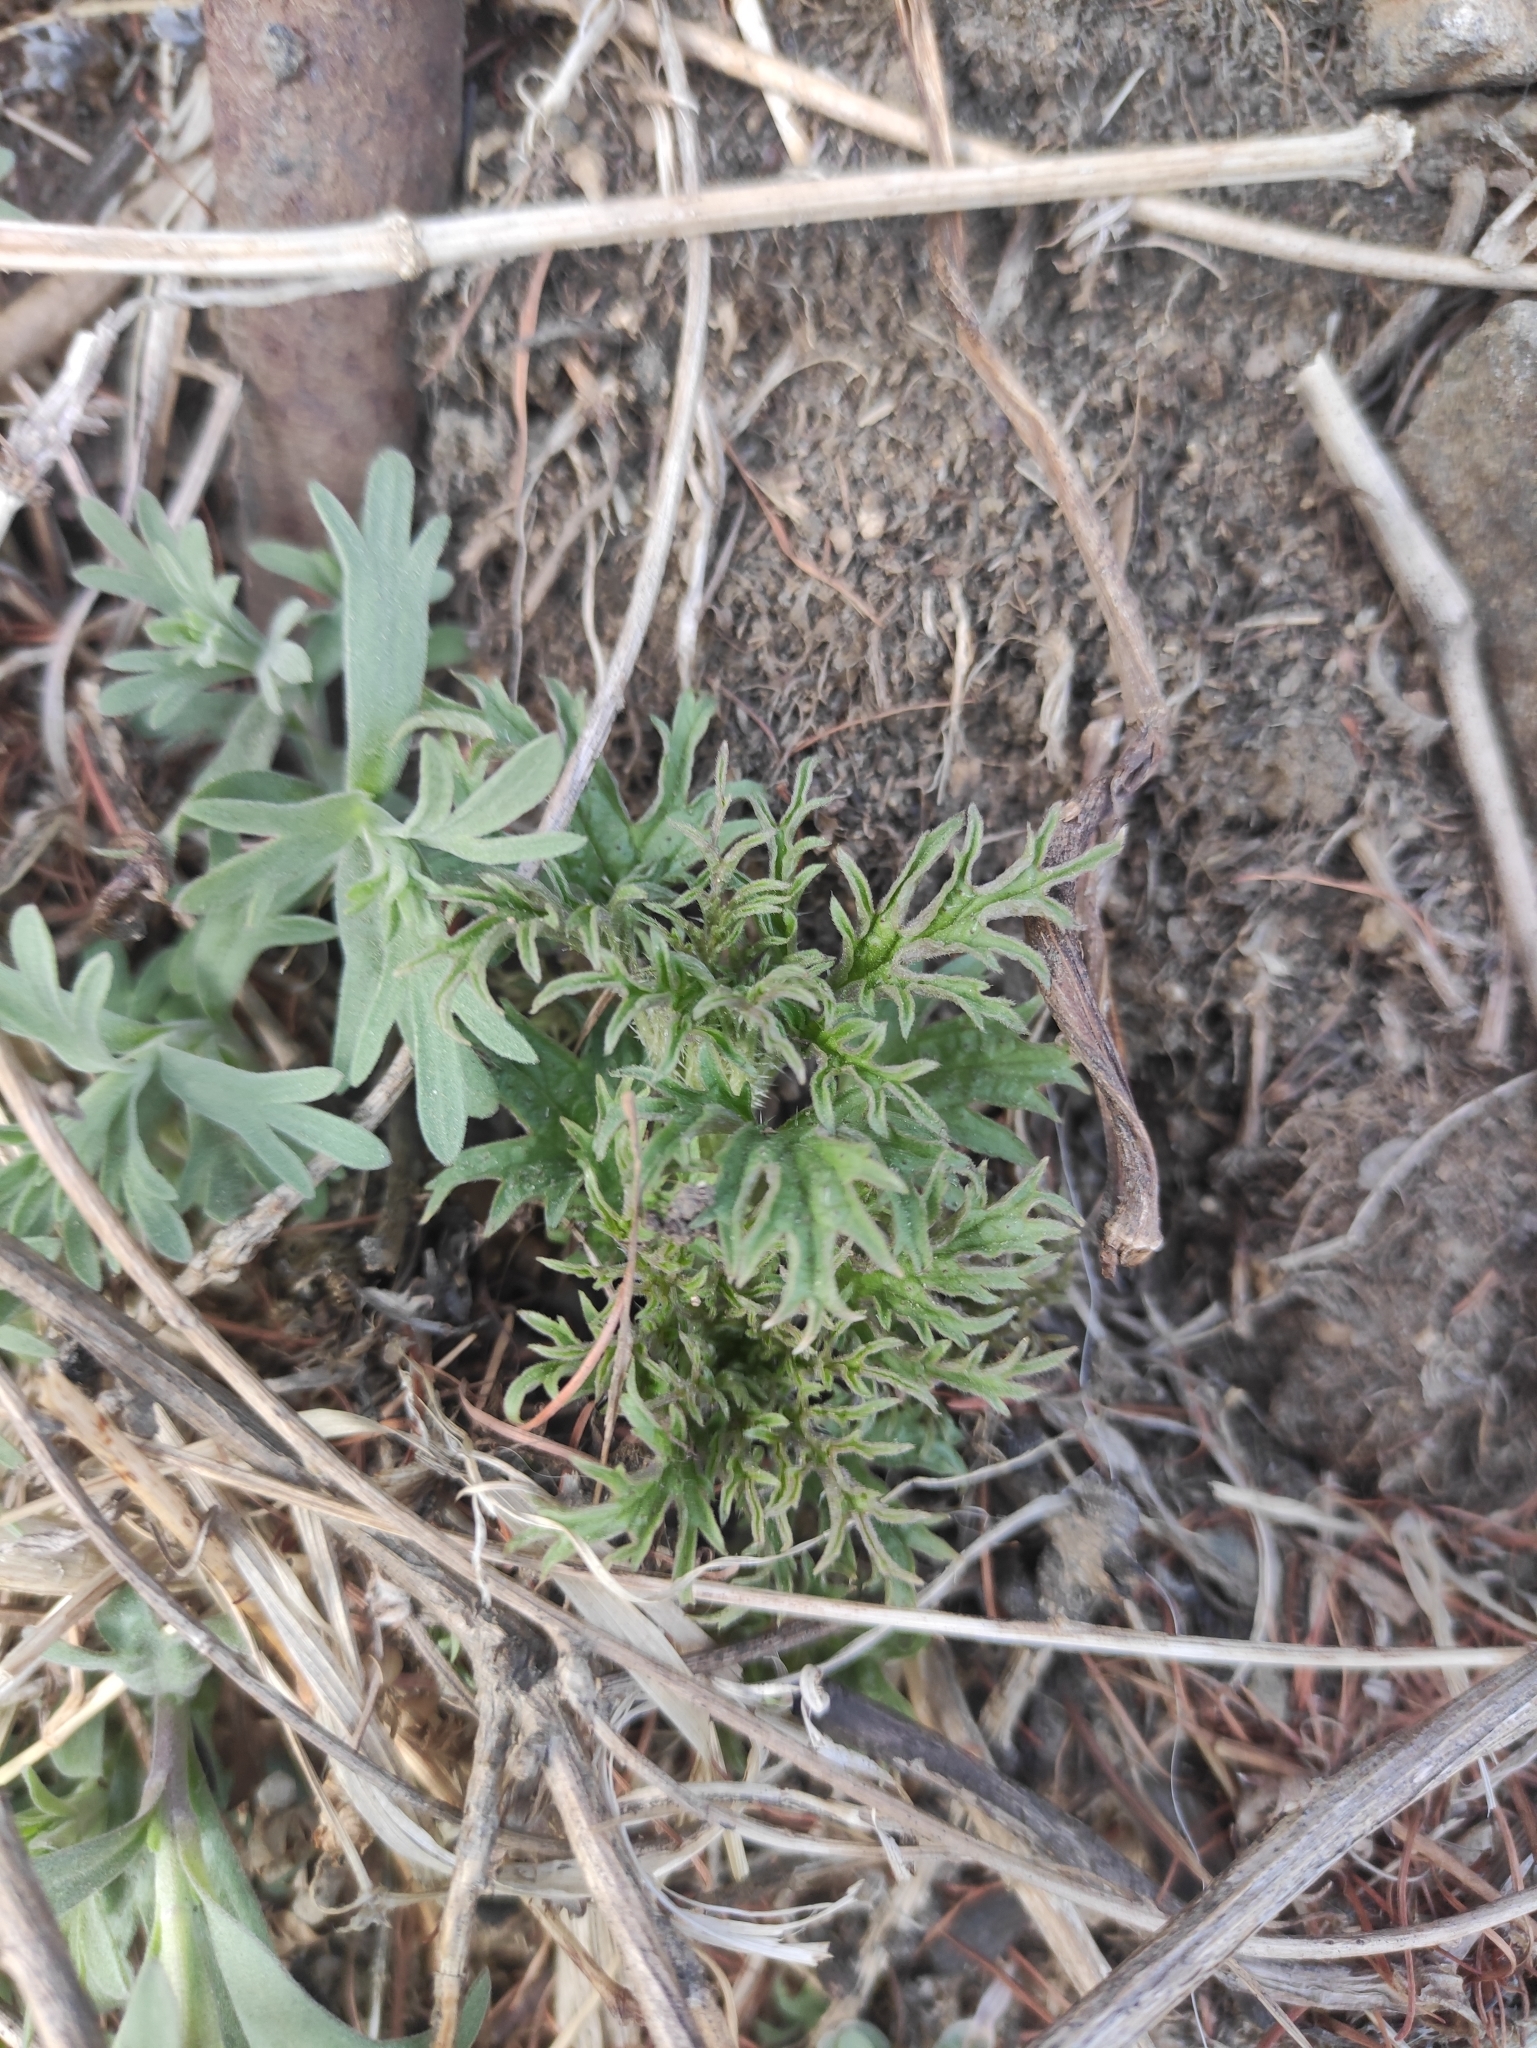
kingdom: Plantae
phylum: Tracheophyta
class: Magnoliopsida
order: Rosales
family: Urticaceae
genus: Urtica
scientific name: Urtica cannabina
